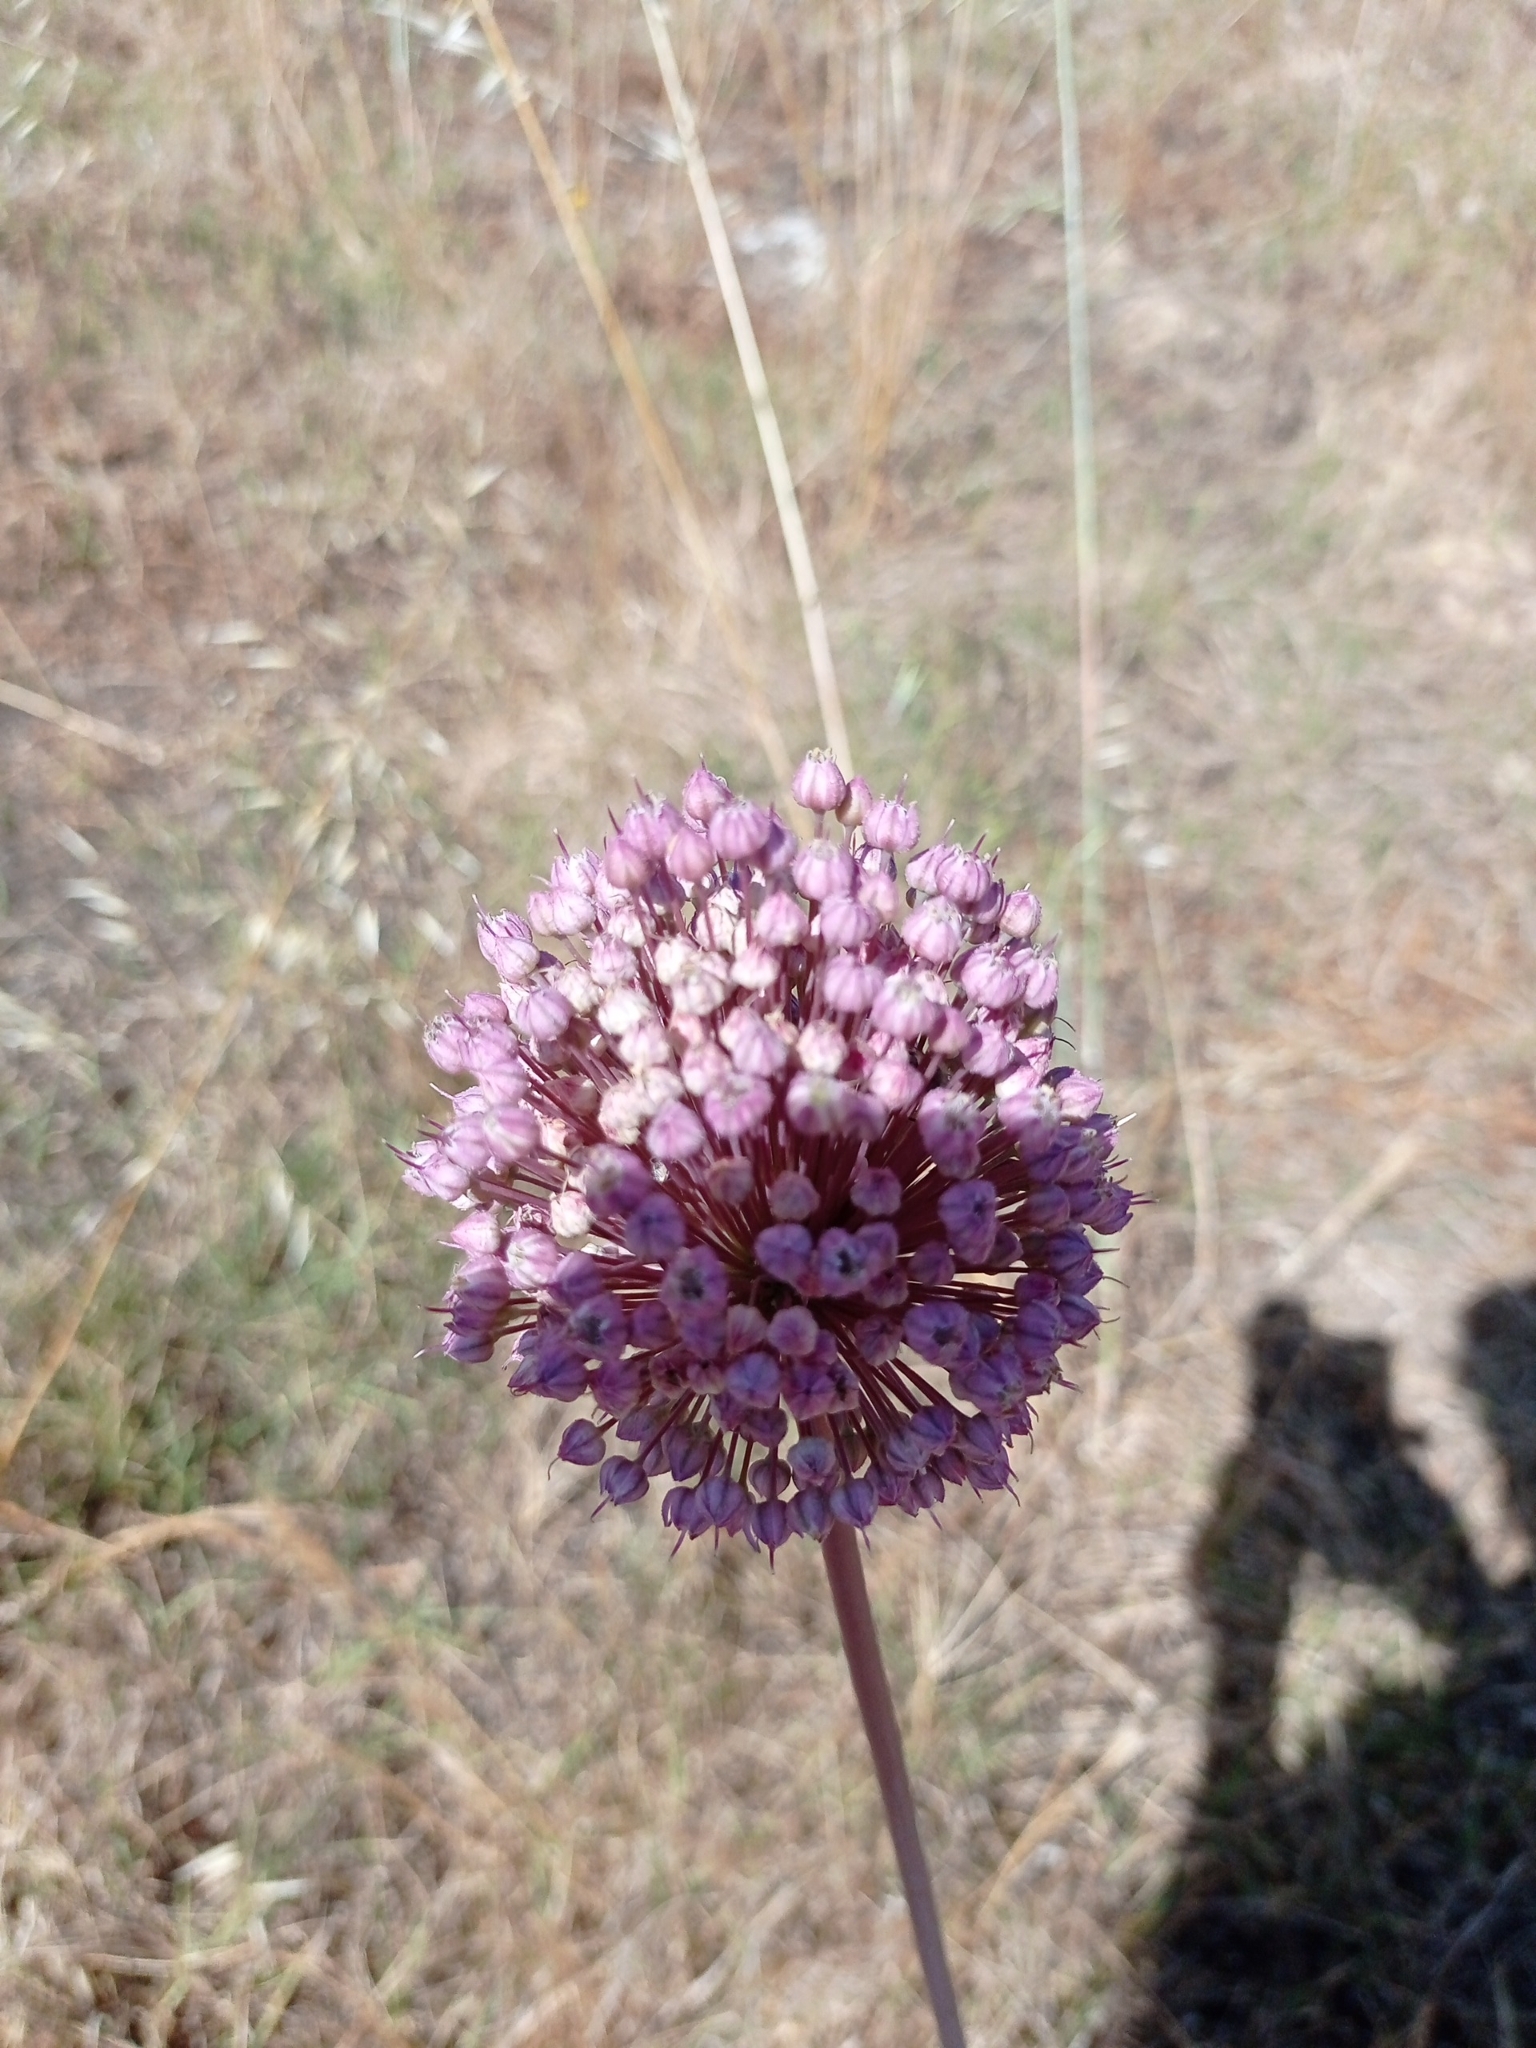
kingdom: Plantae
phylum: Tracheophyta
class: Liliopsida
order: Asparagales
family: Amaryllidaceae
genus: Allium
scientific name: Allium ampeloprasum
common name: Wild leek
